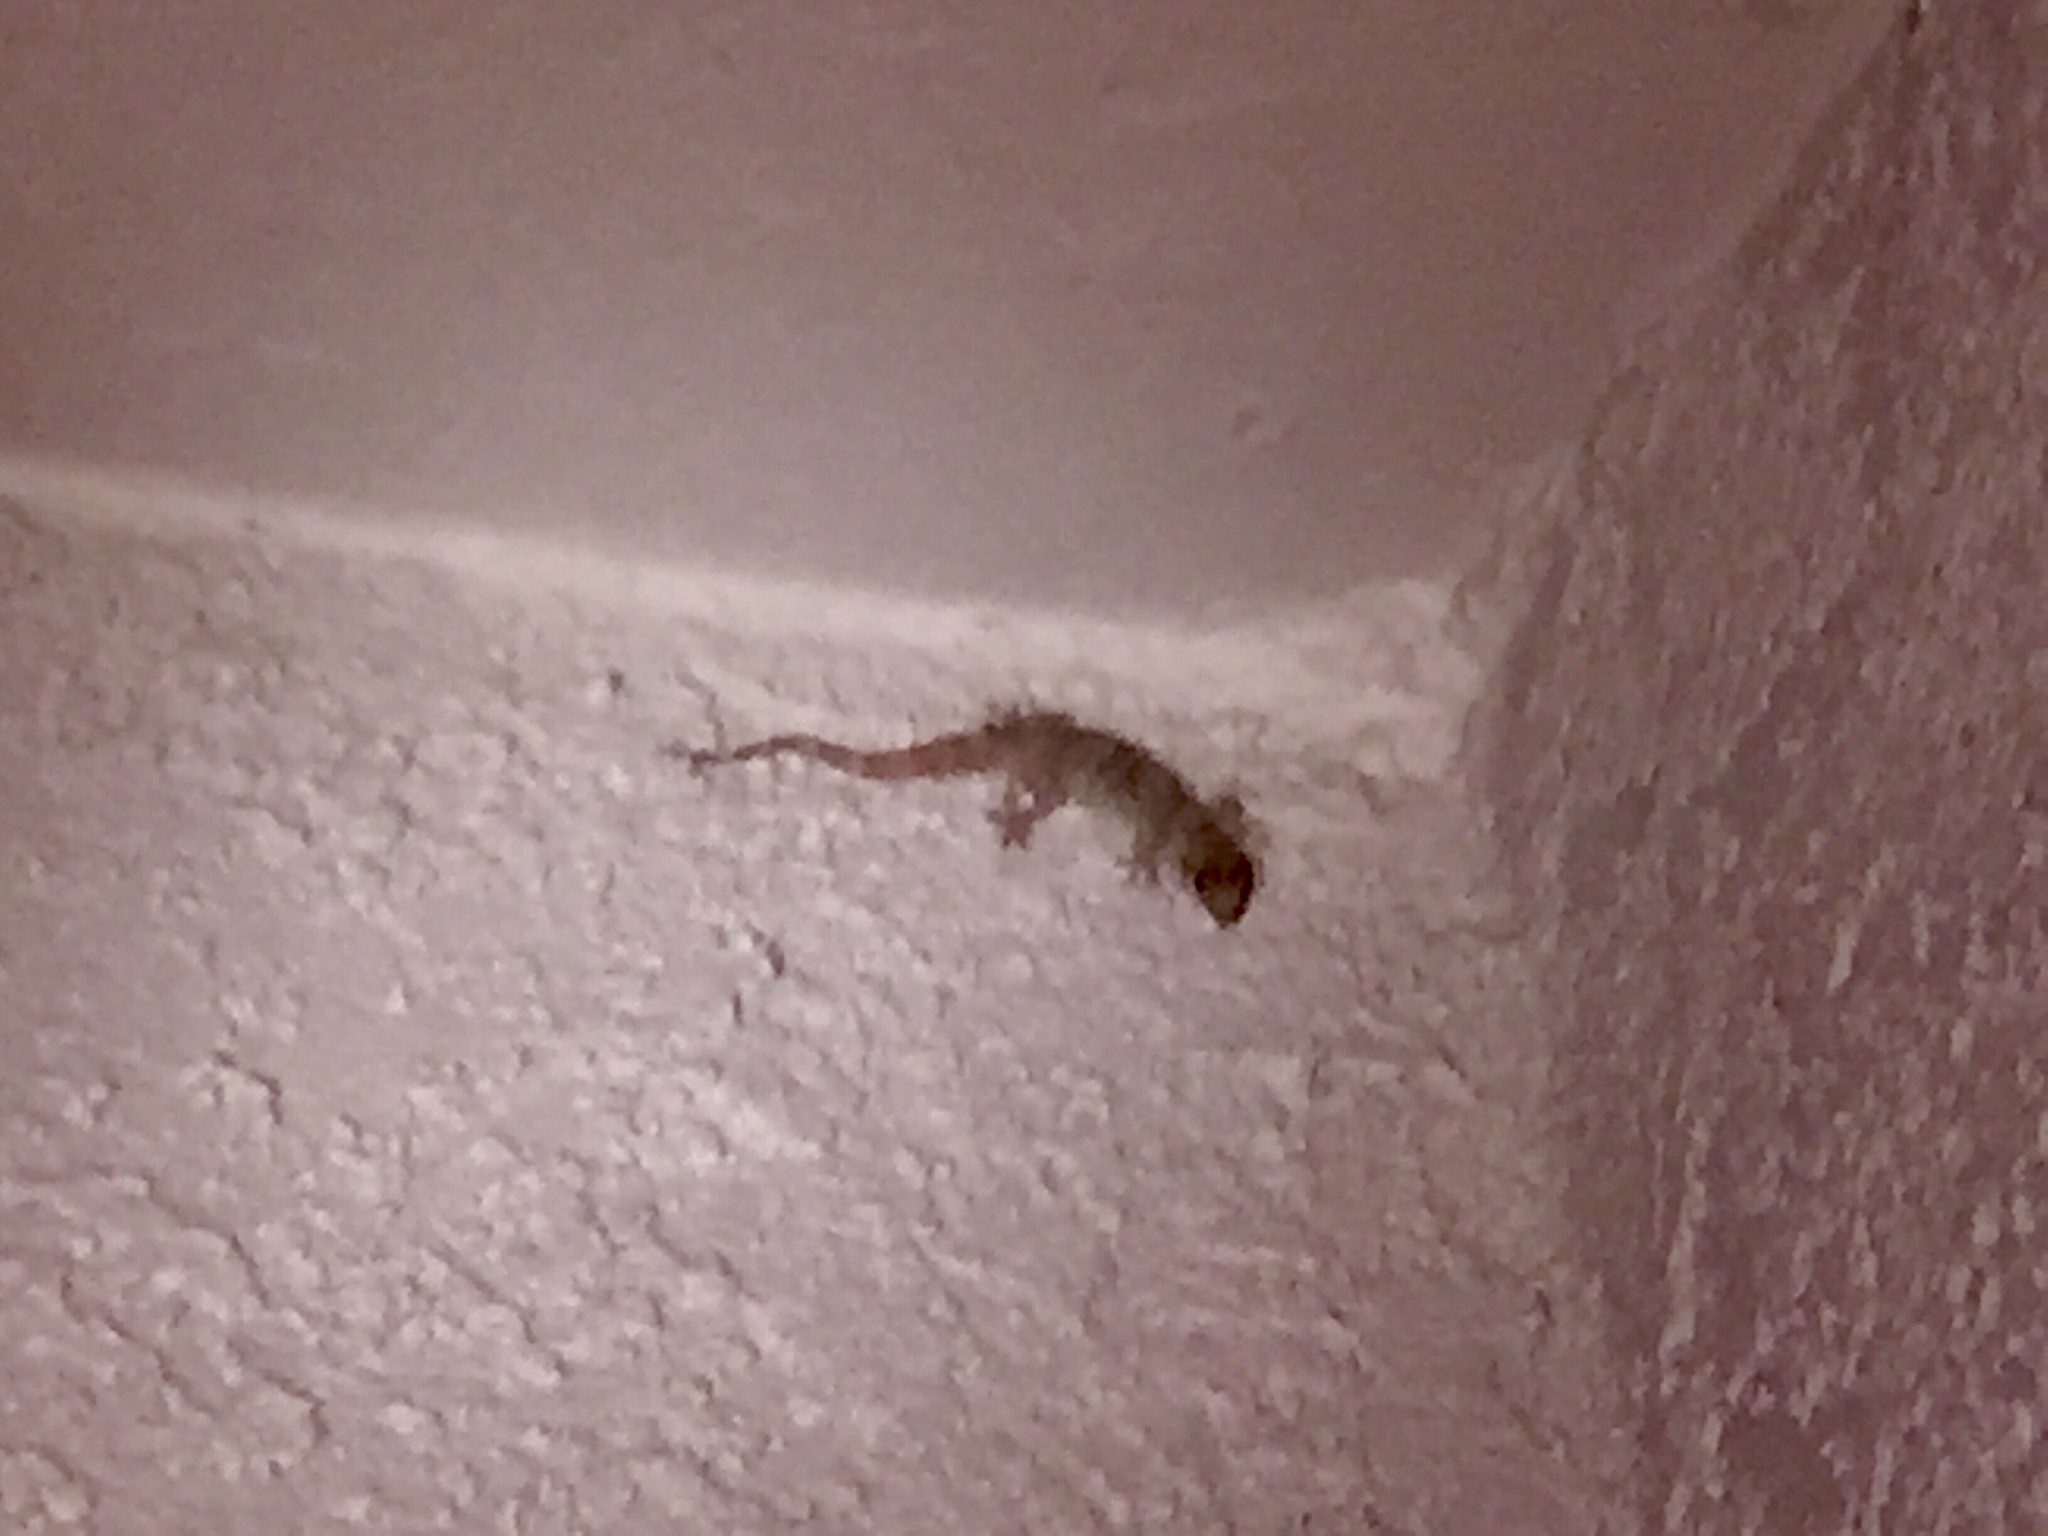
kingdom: Animalia
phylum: Chordata
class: Squamata
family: Gekkonidae
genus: Hemidactylus
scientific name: Hemidactylus turcicus
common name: Turkish gecko
